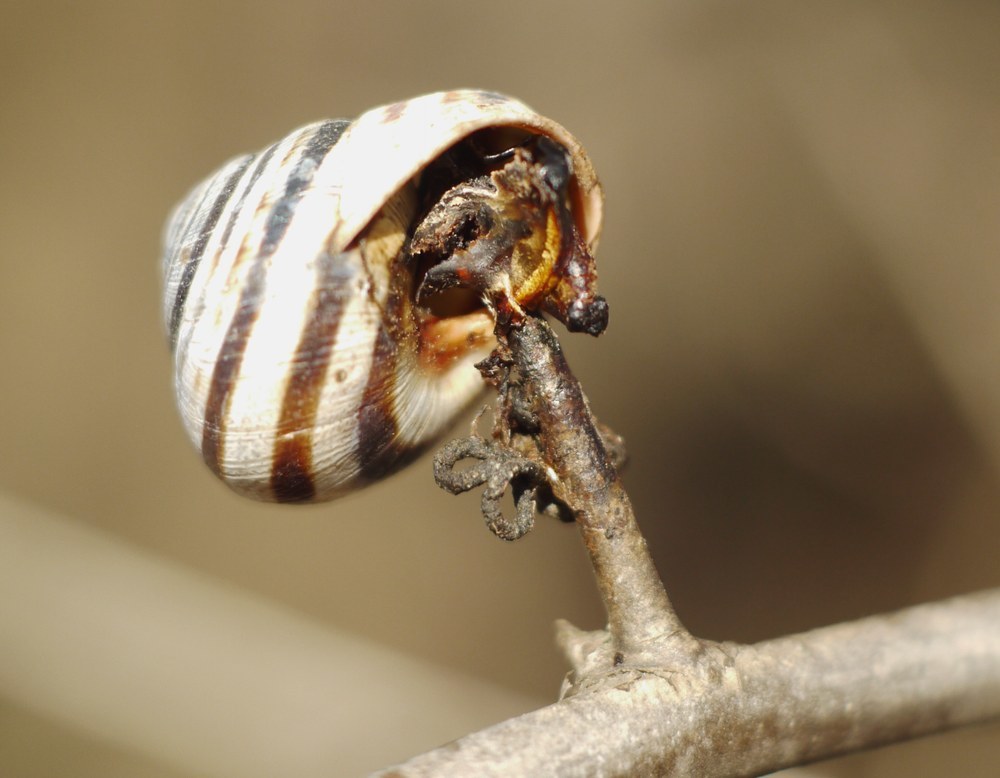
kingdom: Animalia
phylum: Mollusca
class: Gastropoda
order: Stylommatophora
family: Helicidae
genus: Caucasotachea
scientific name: Caucasotachea vindobonensis
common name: European helicid land snail
